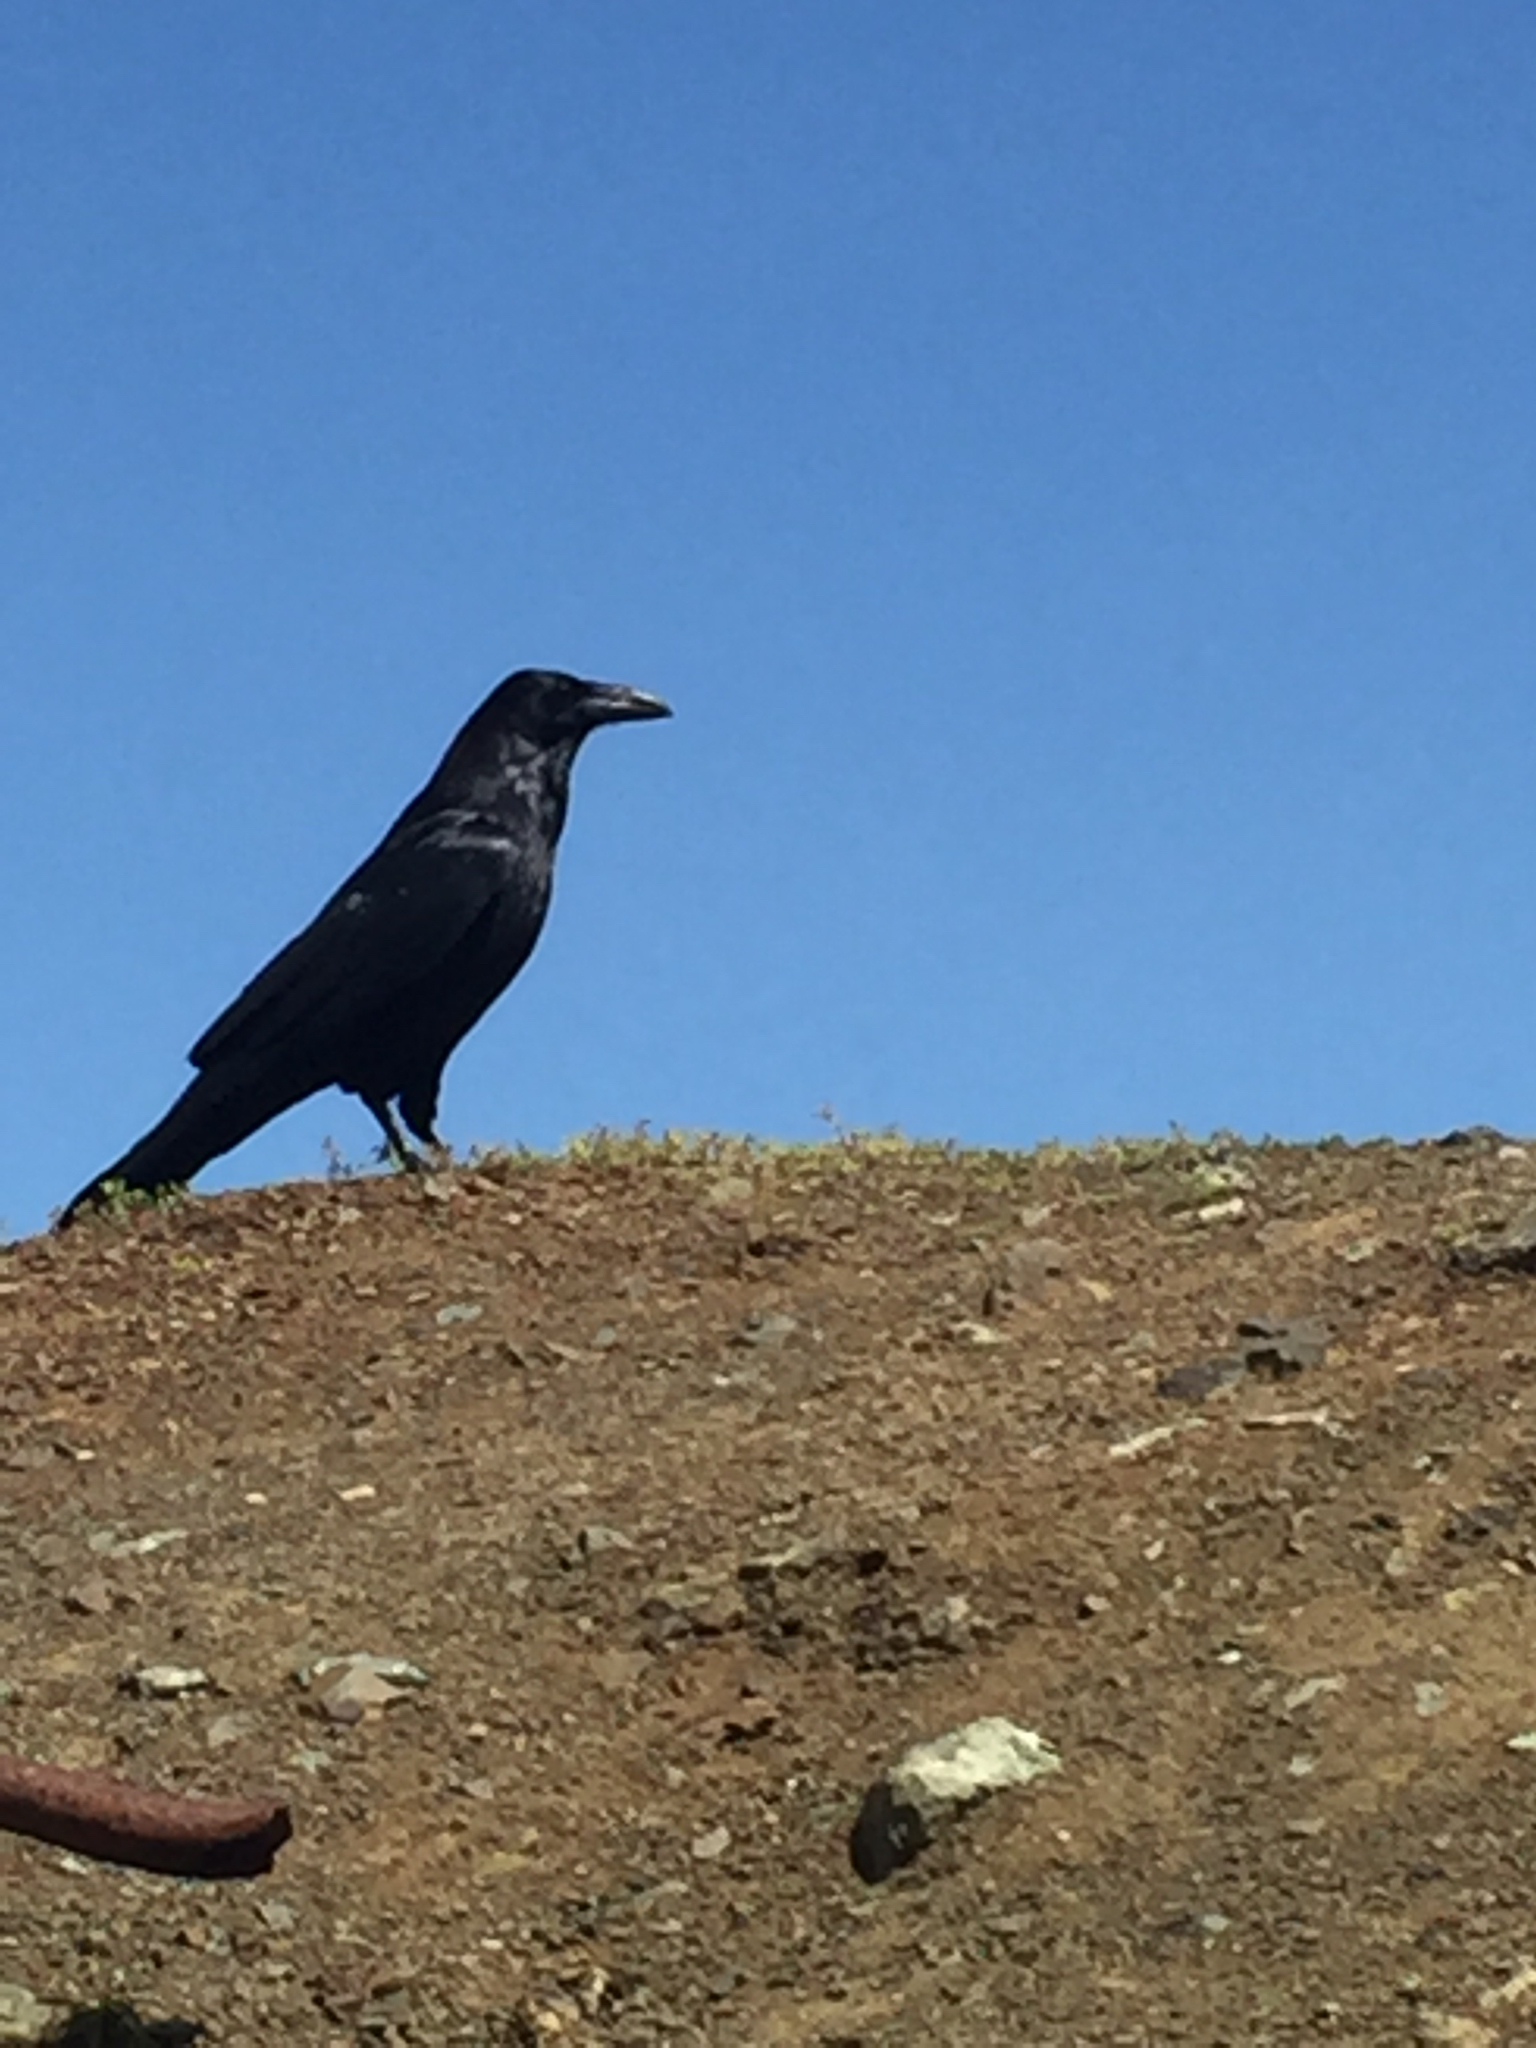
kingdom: Animalia
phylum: Chordata
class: Aves
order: Passeriformes
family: Corvidae
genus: Corvus
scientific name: Corvus corax
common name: Common raven
